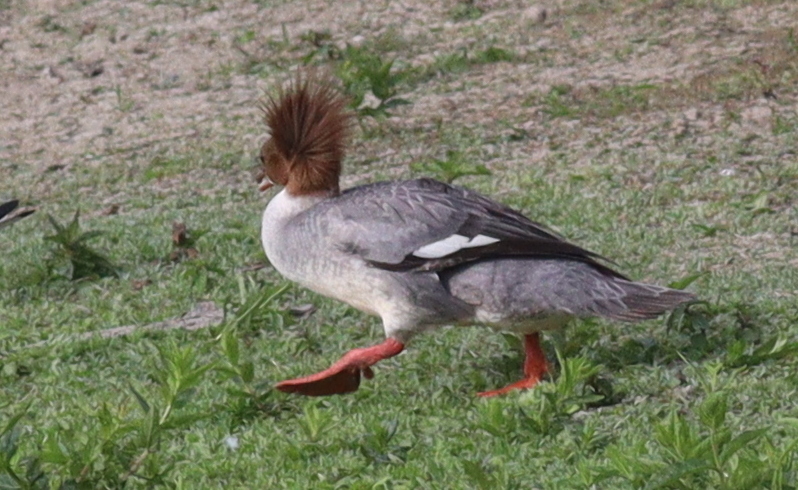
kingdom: Animalia
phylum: Chordata
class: Aves
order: Anseriformes
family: Anatidae
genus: Mergus
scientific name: Mergus merganser
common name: Common merganser
